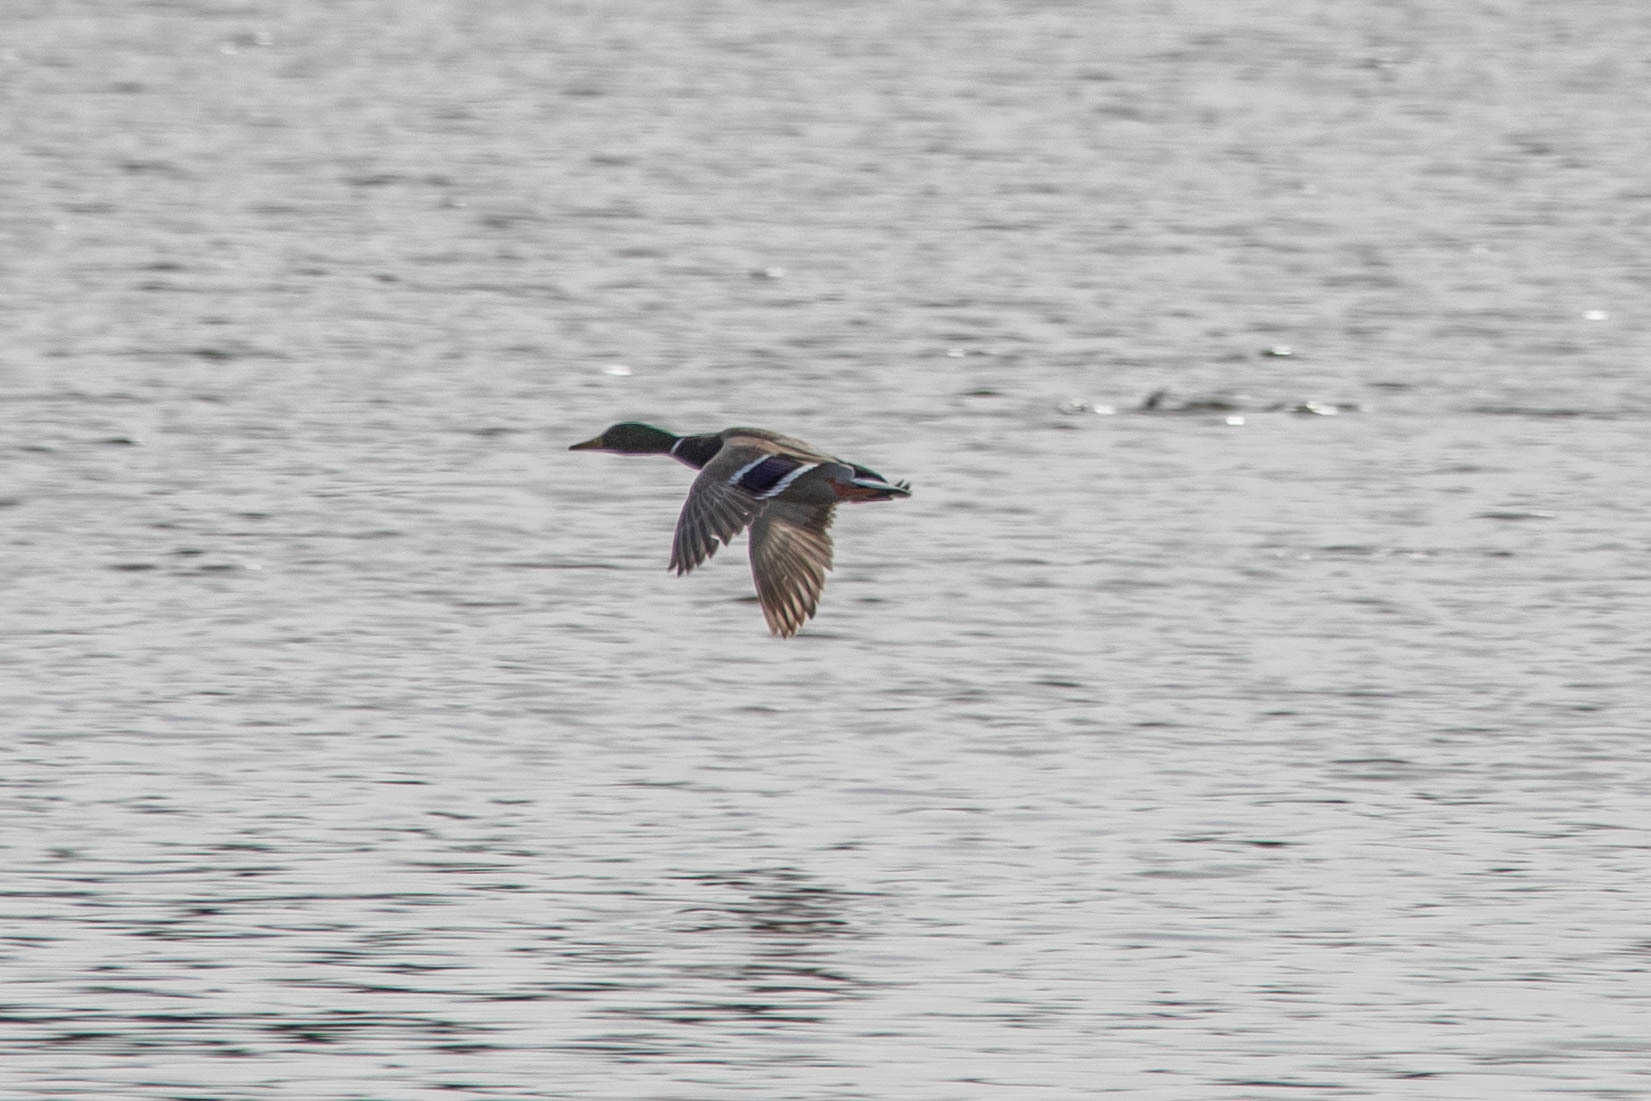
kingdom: Animalia
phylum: Chordata
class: Aves
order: Anseriformes
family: Anatidae
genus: Anas
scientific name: Anas platyrhynchos
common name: Mallard
